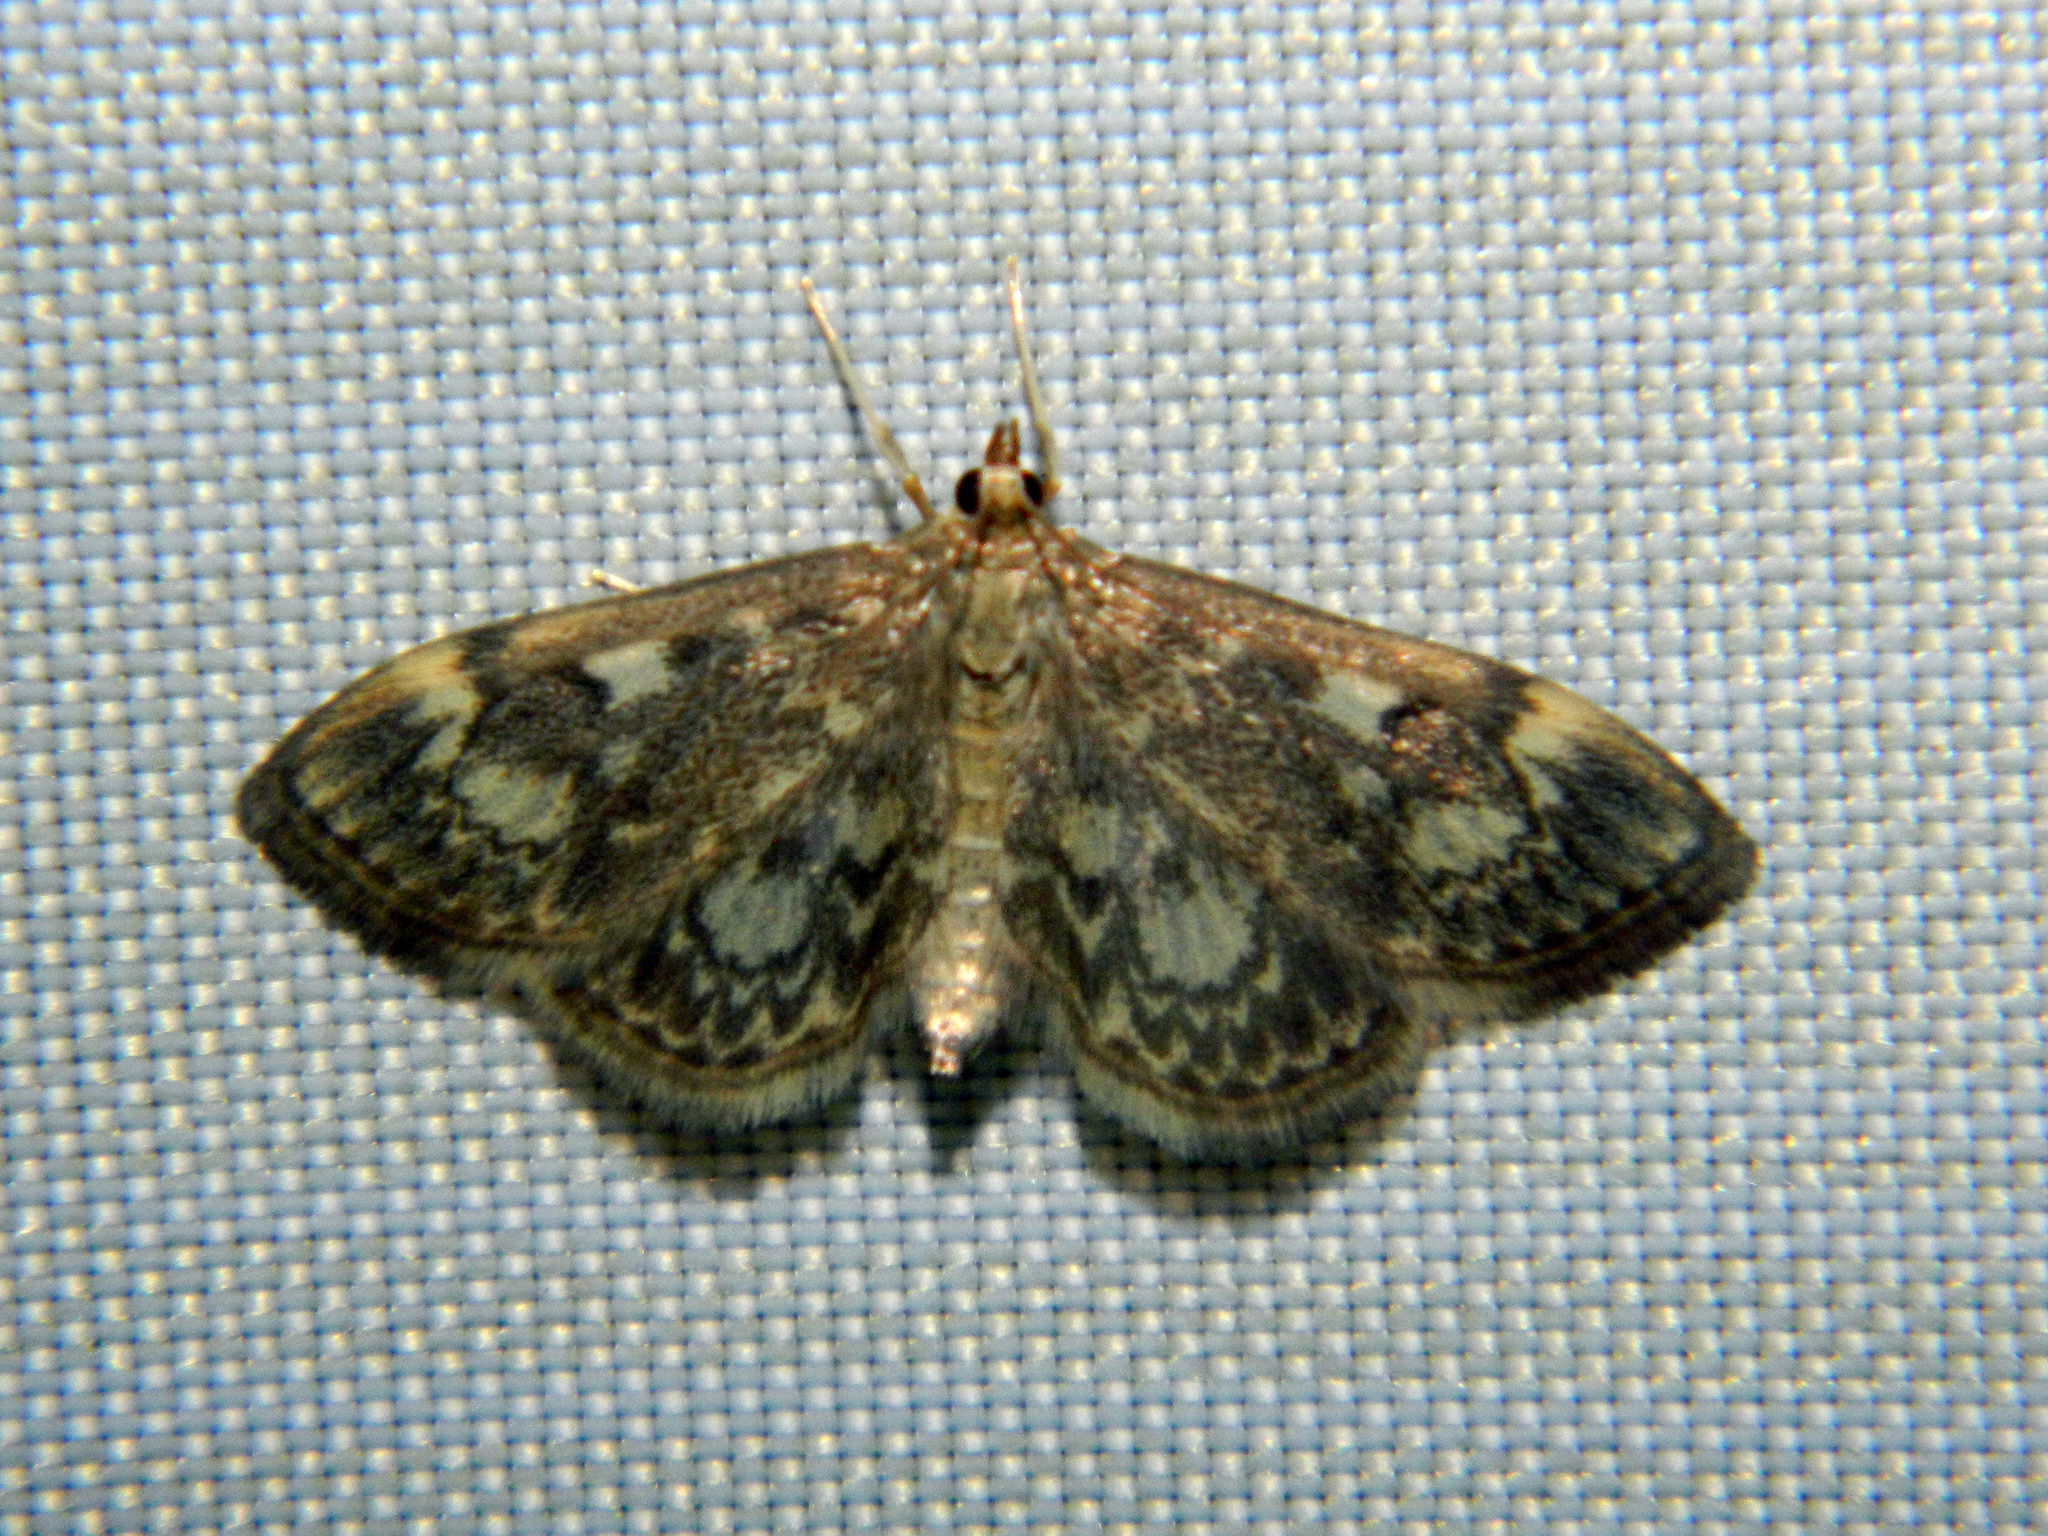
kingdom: Animalia
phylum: Arthropoda
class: Insecta
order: Lepidoptera
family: Crambidae
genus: Anania
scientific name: Anania
